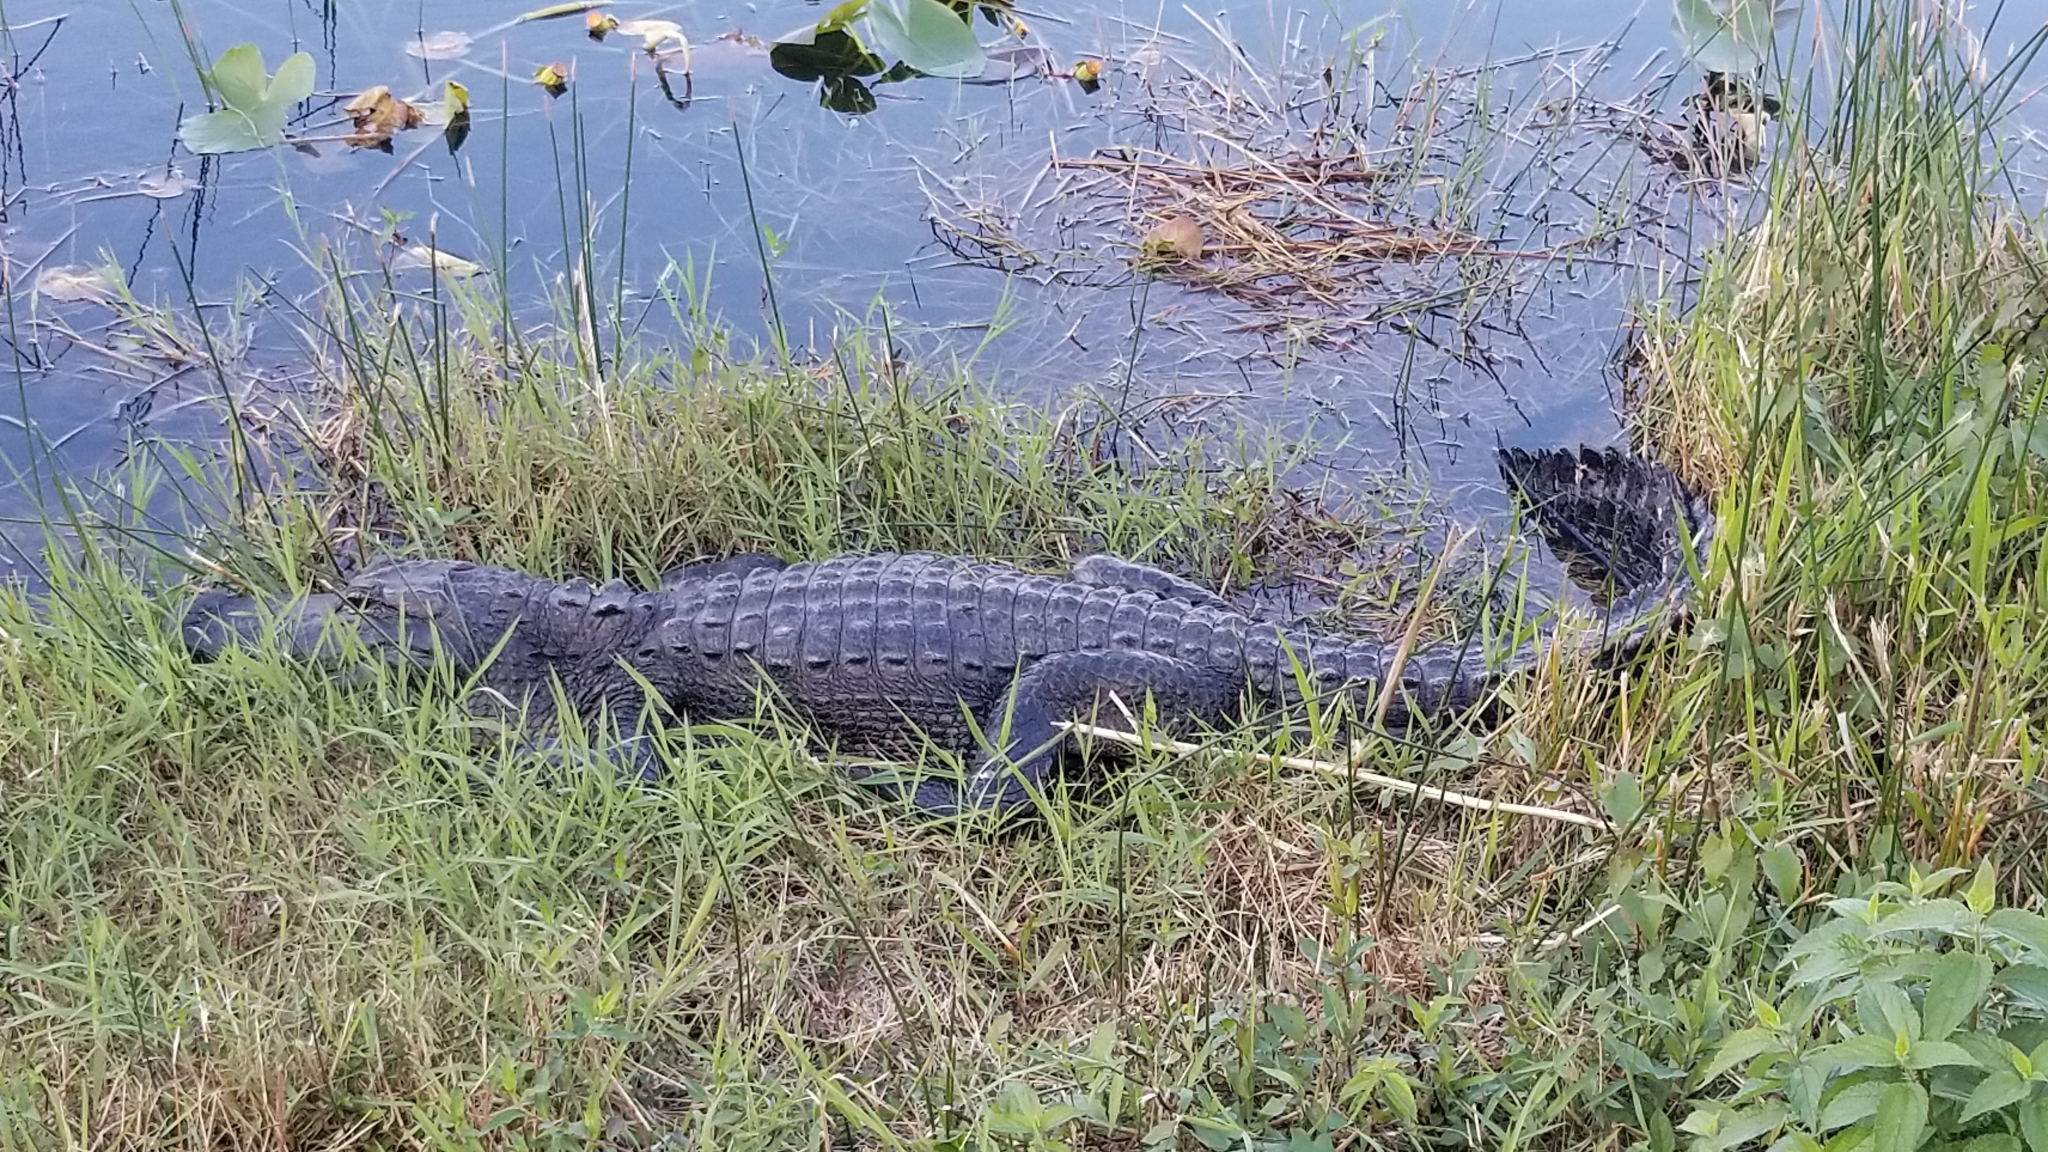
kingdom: Animalia
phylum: Chordata
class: Crocodylia
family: Alligatoridae
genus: Alligator
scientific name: Alligator mississippiensis
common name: American alligator
